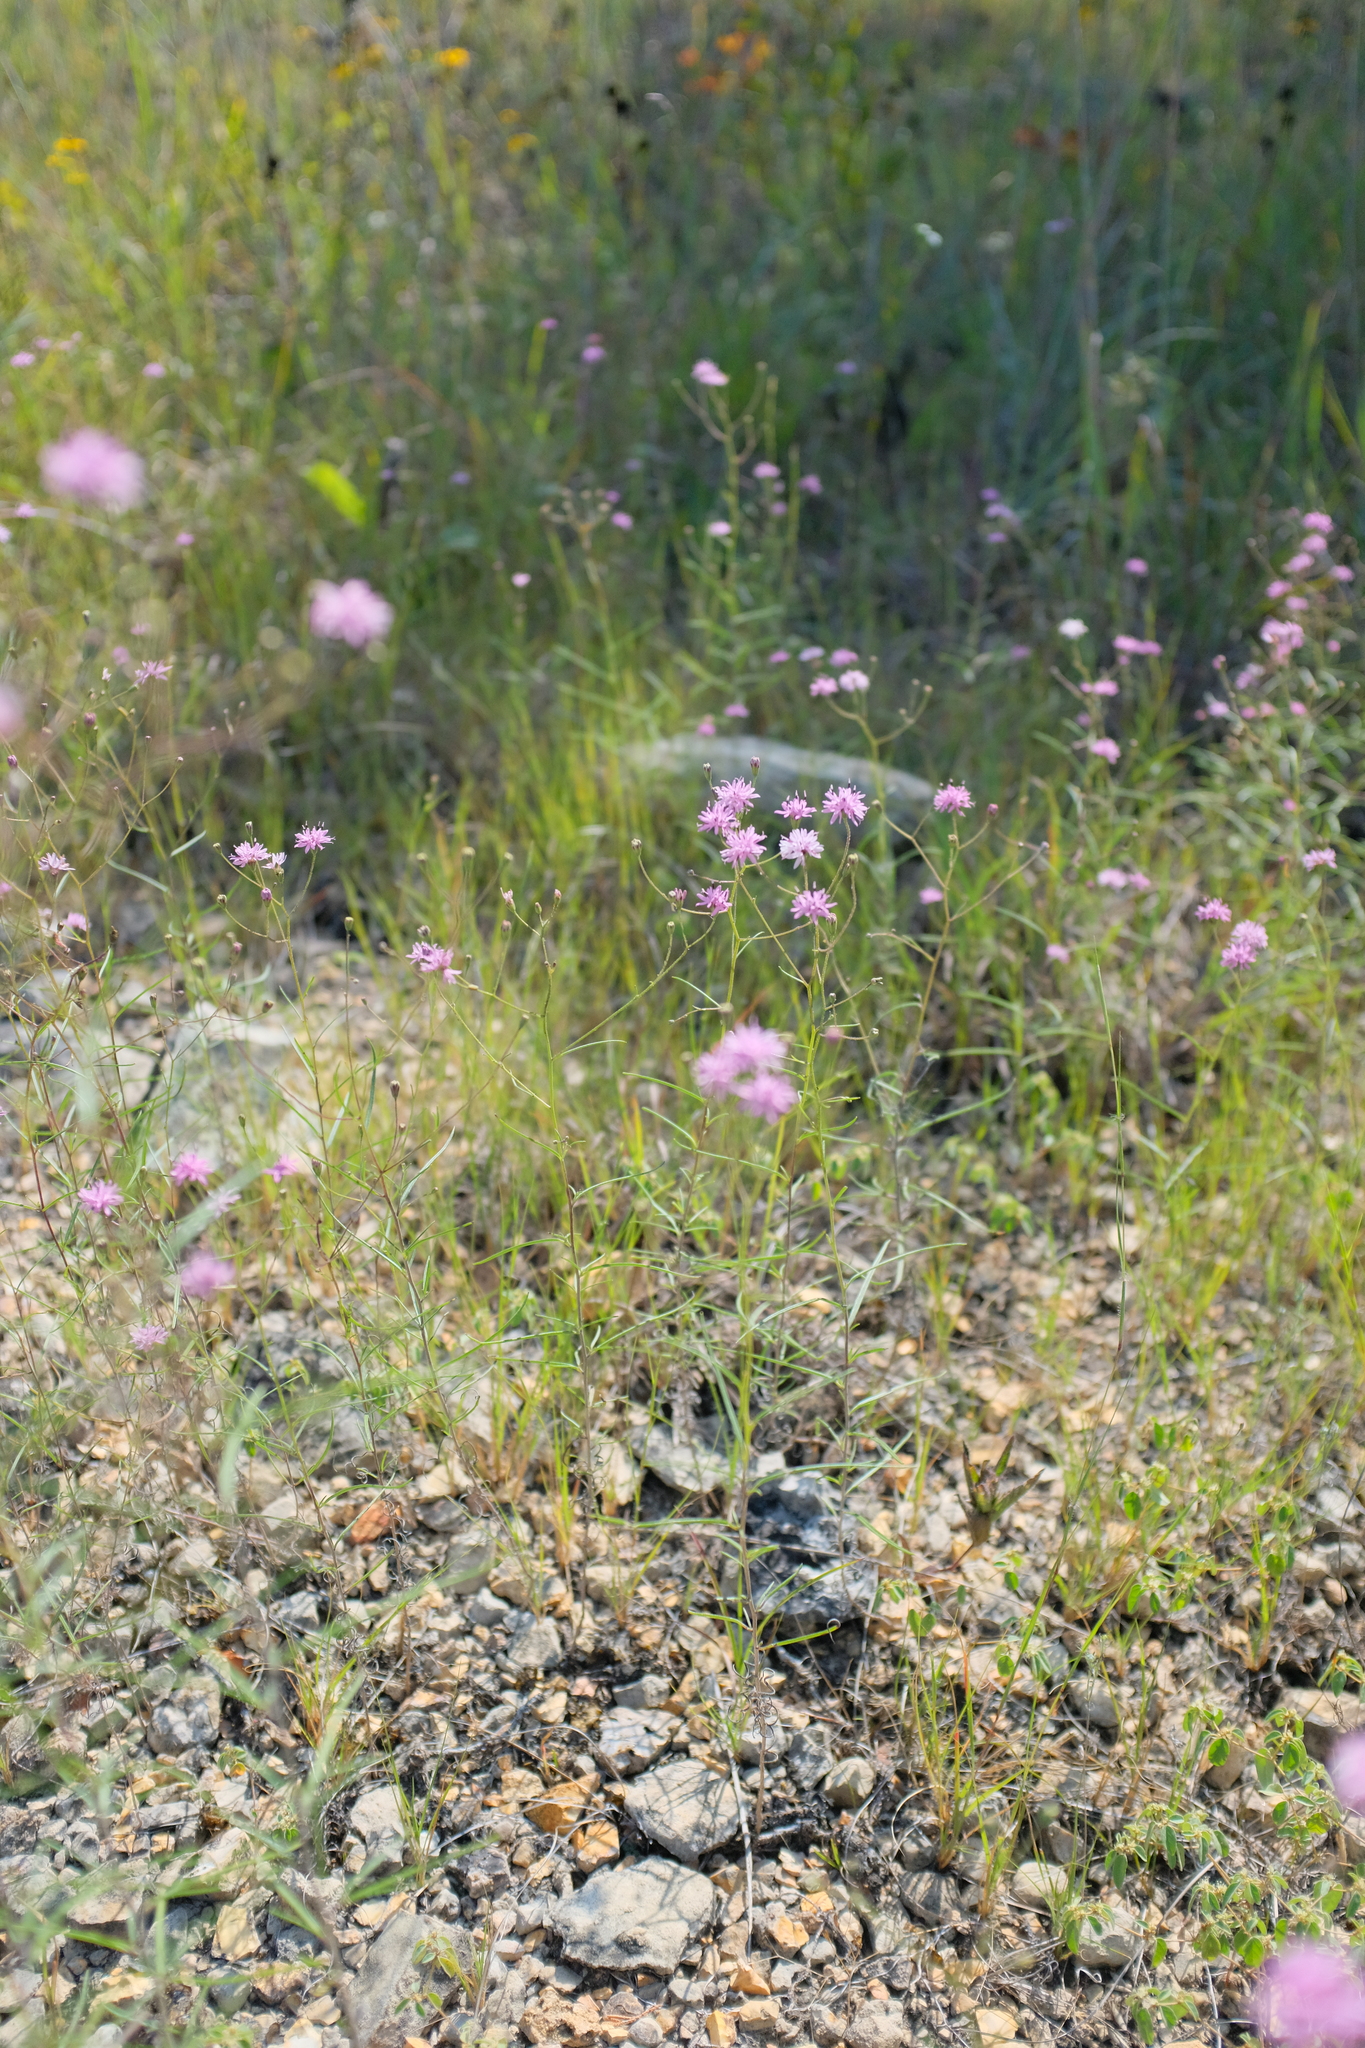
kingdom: Plantae
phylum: Tracheophyta
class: Magnoliopsida
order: Asterales
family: Asteraceae
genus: Palafoxia
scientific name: Palafoxia callosa
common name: Small palafox
